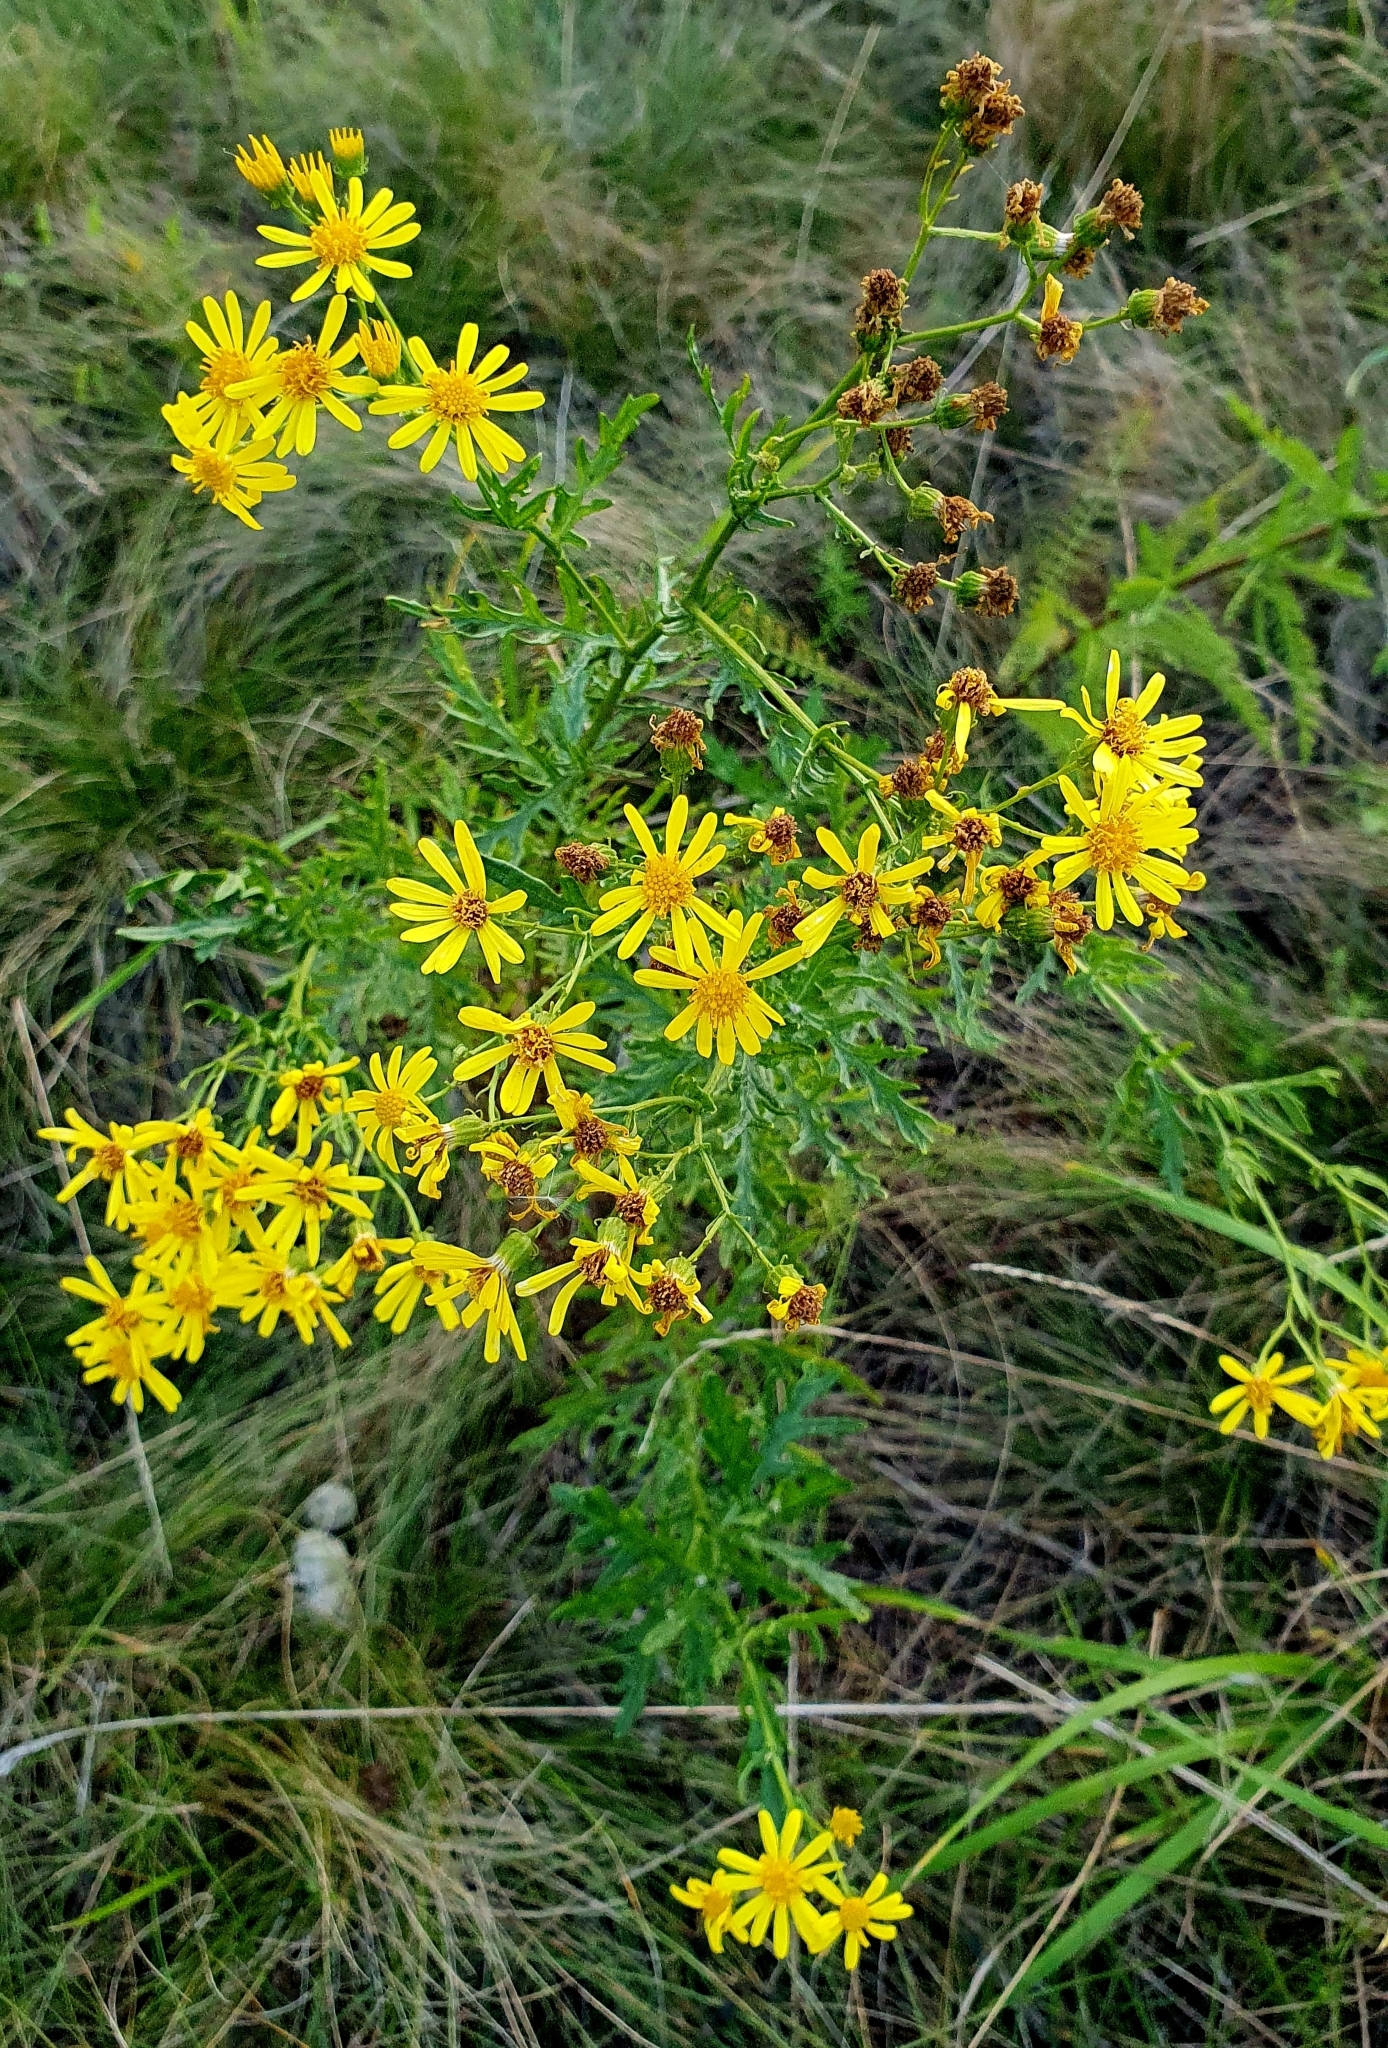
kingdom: Plantae
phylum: Tracheophyta
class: Magnoliopsida
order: Asterales
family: Asteraceae
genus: Jacobaea
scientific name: Jacobaea vulgaris
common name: Stinking willie
